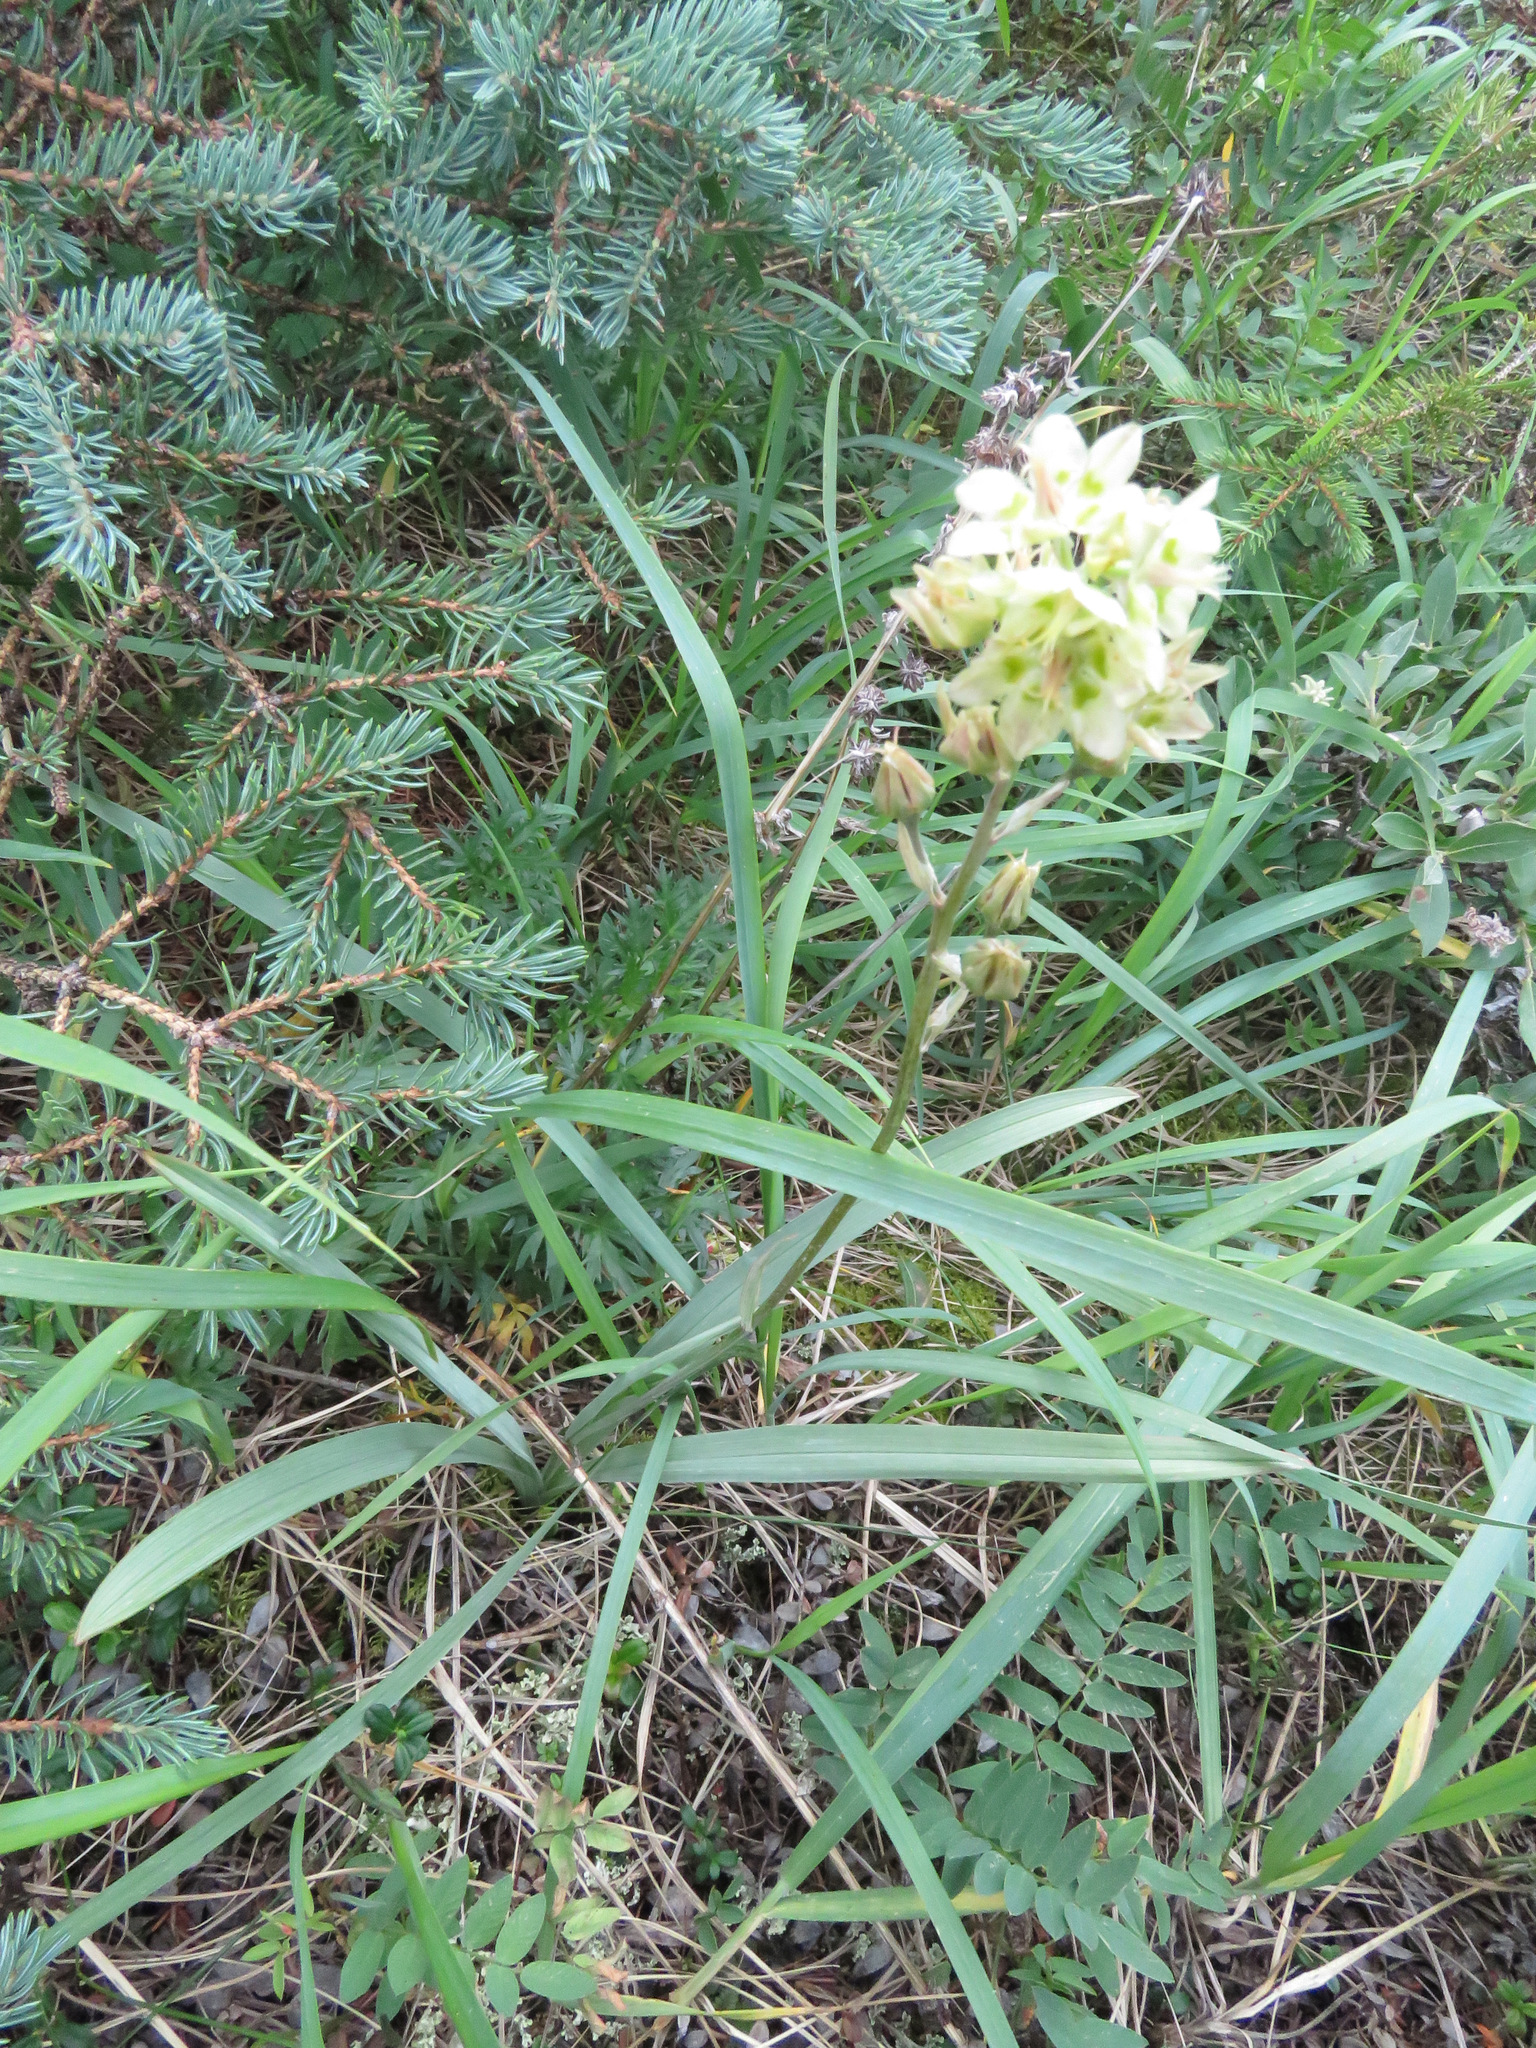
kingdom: Plantae
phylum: Tracheophyta
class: Liliopsida
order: Liliales
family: Melanthiaceae
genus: Anticlea
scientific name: Anticlea elegans
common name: Mountain death camas
